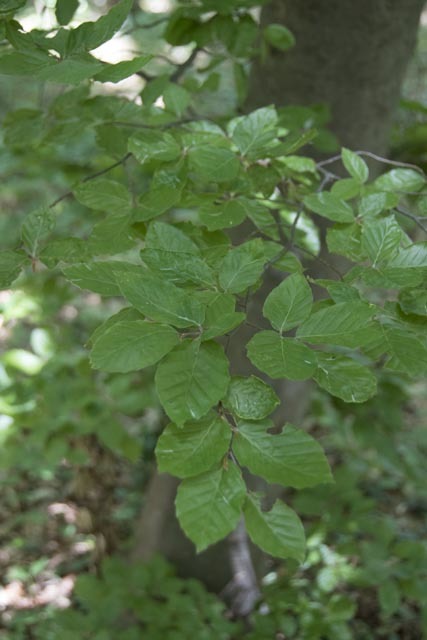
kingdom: Plantae
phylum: Tracheophyta
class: Magnoliopsida
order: Fagales
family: Fagaceae
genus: Fagus
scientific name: Fagus sylvatica
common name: Beech
